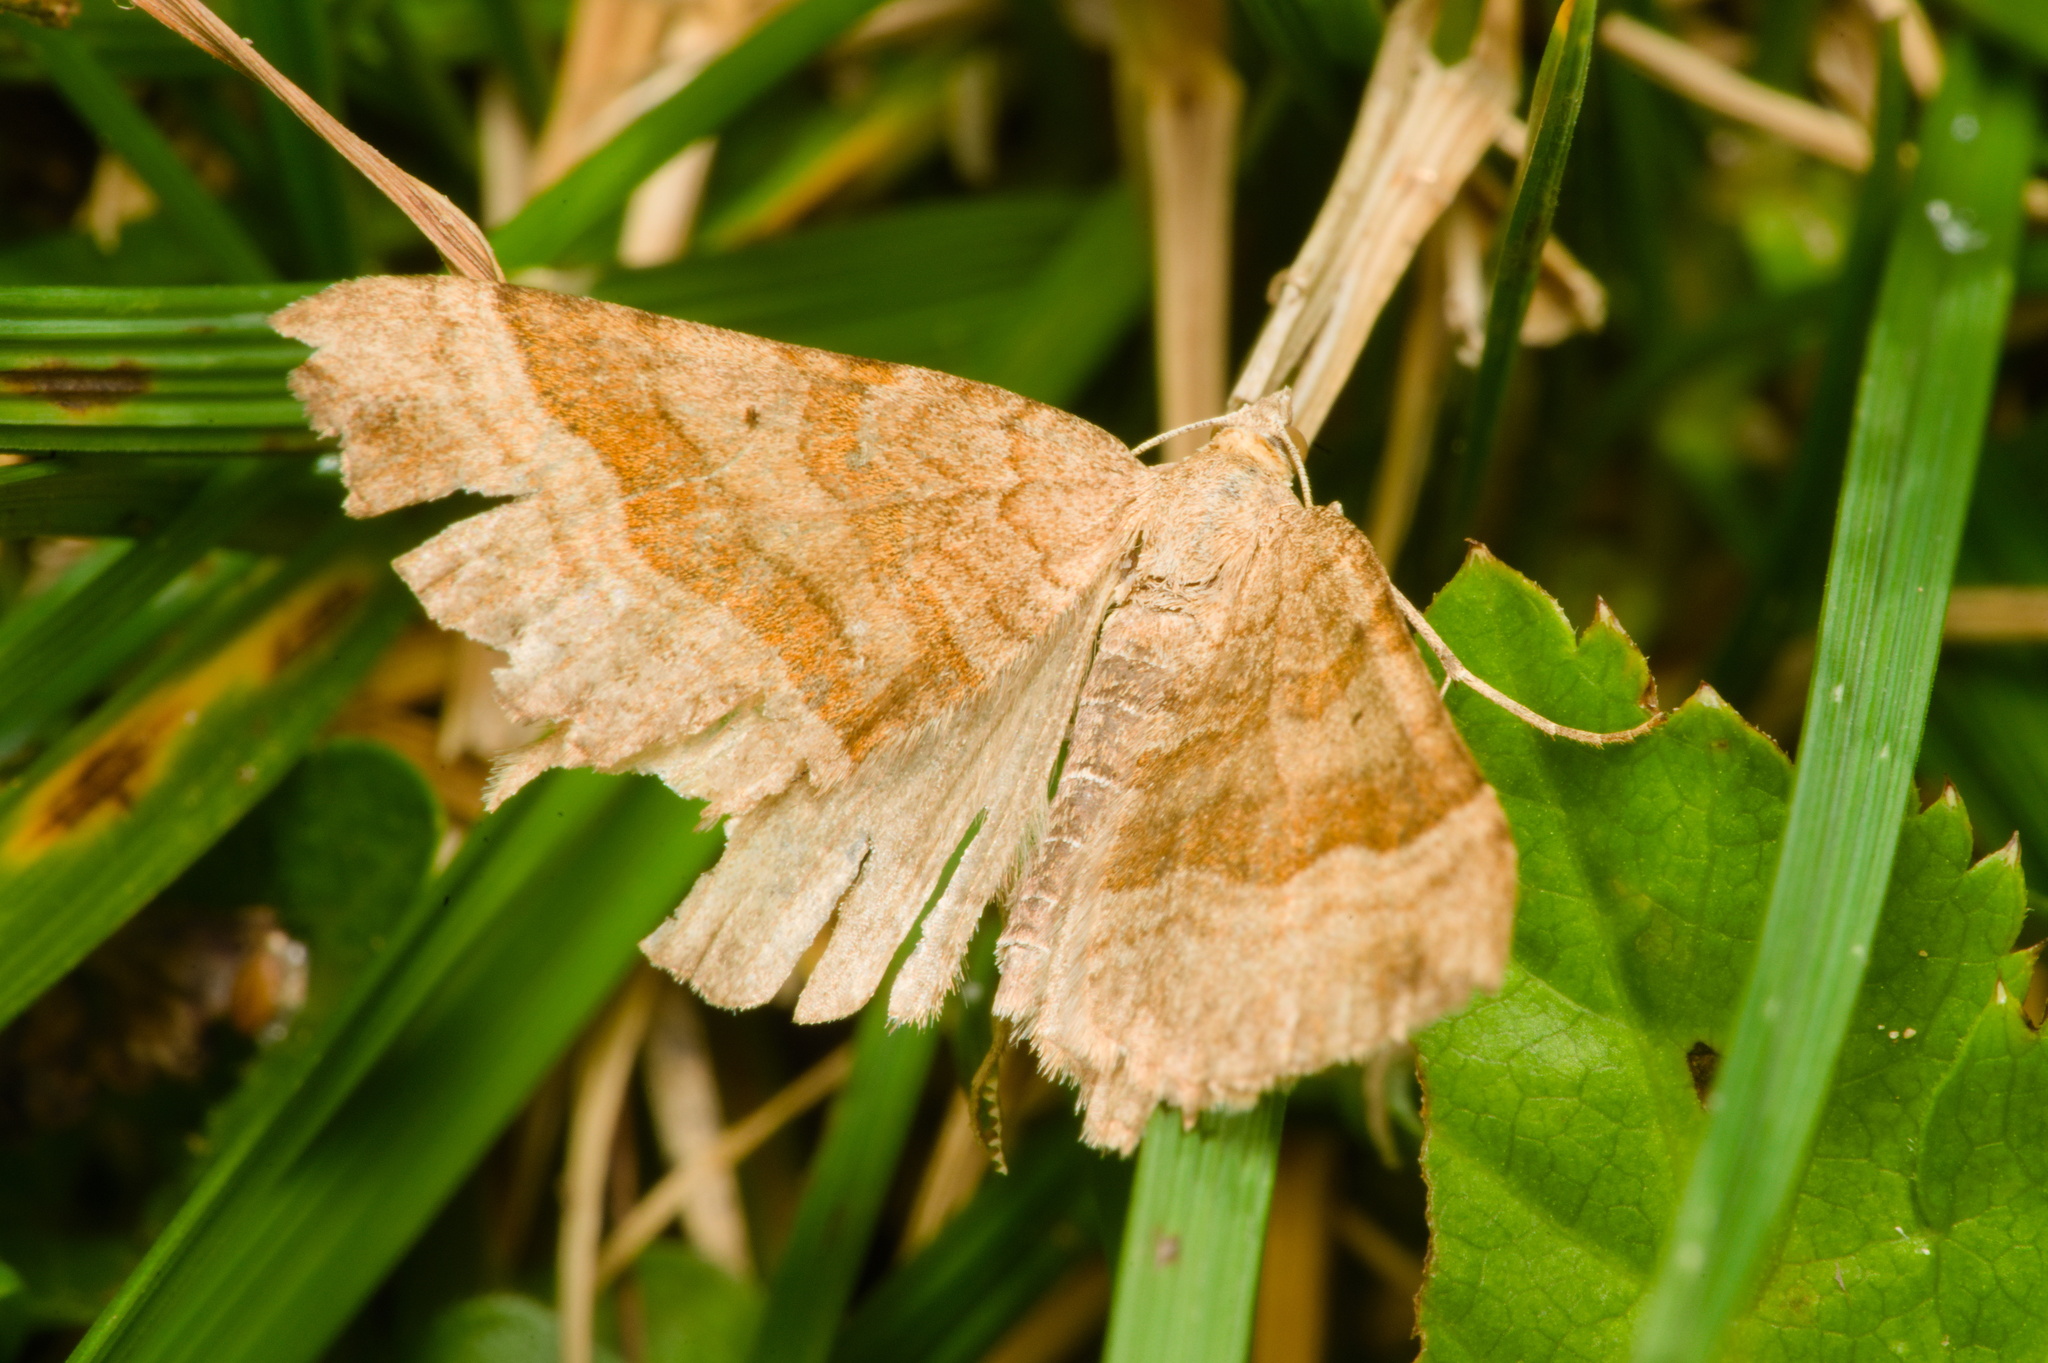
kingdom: Animalia
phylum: Arthropoda
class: Insecta
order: Lepidoptera
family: Geometridae
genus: Scotopteryx
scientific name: Scotopteryx chenopodiata
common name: Shaded broad-bar
